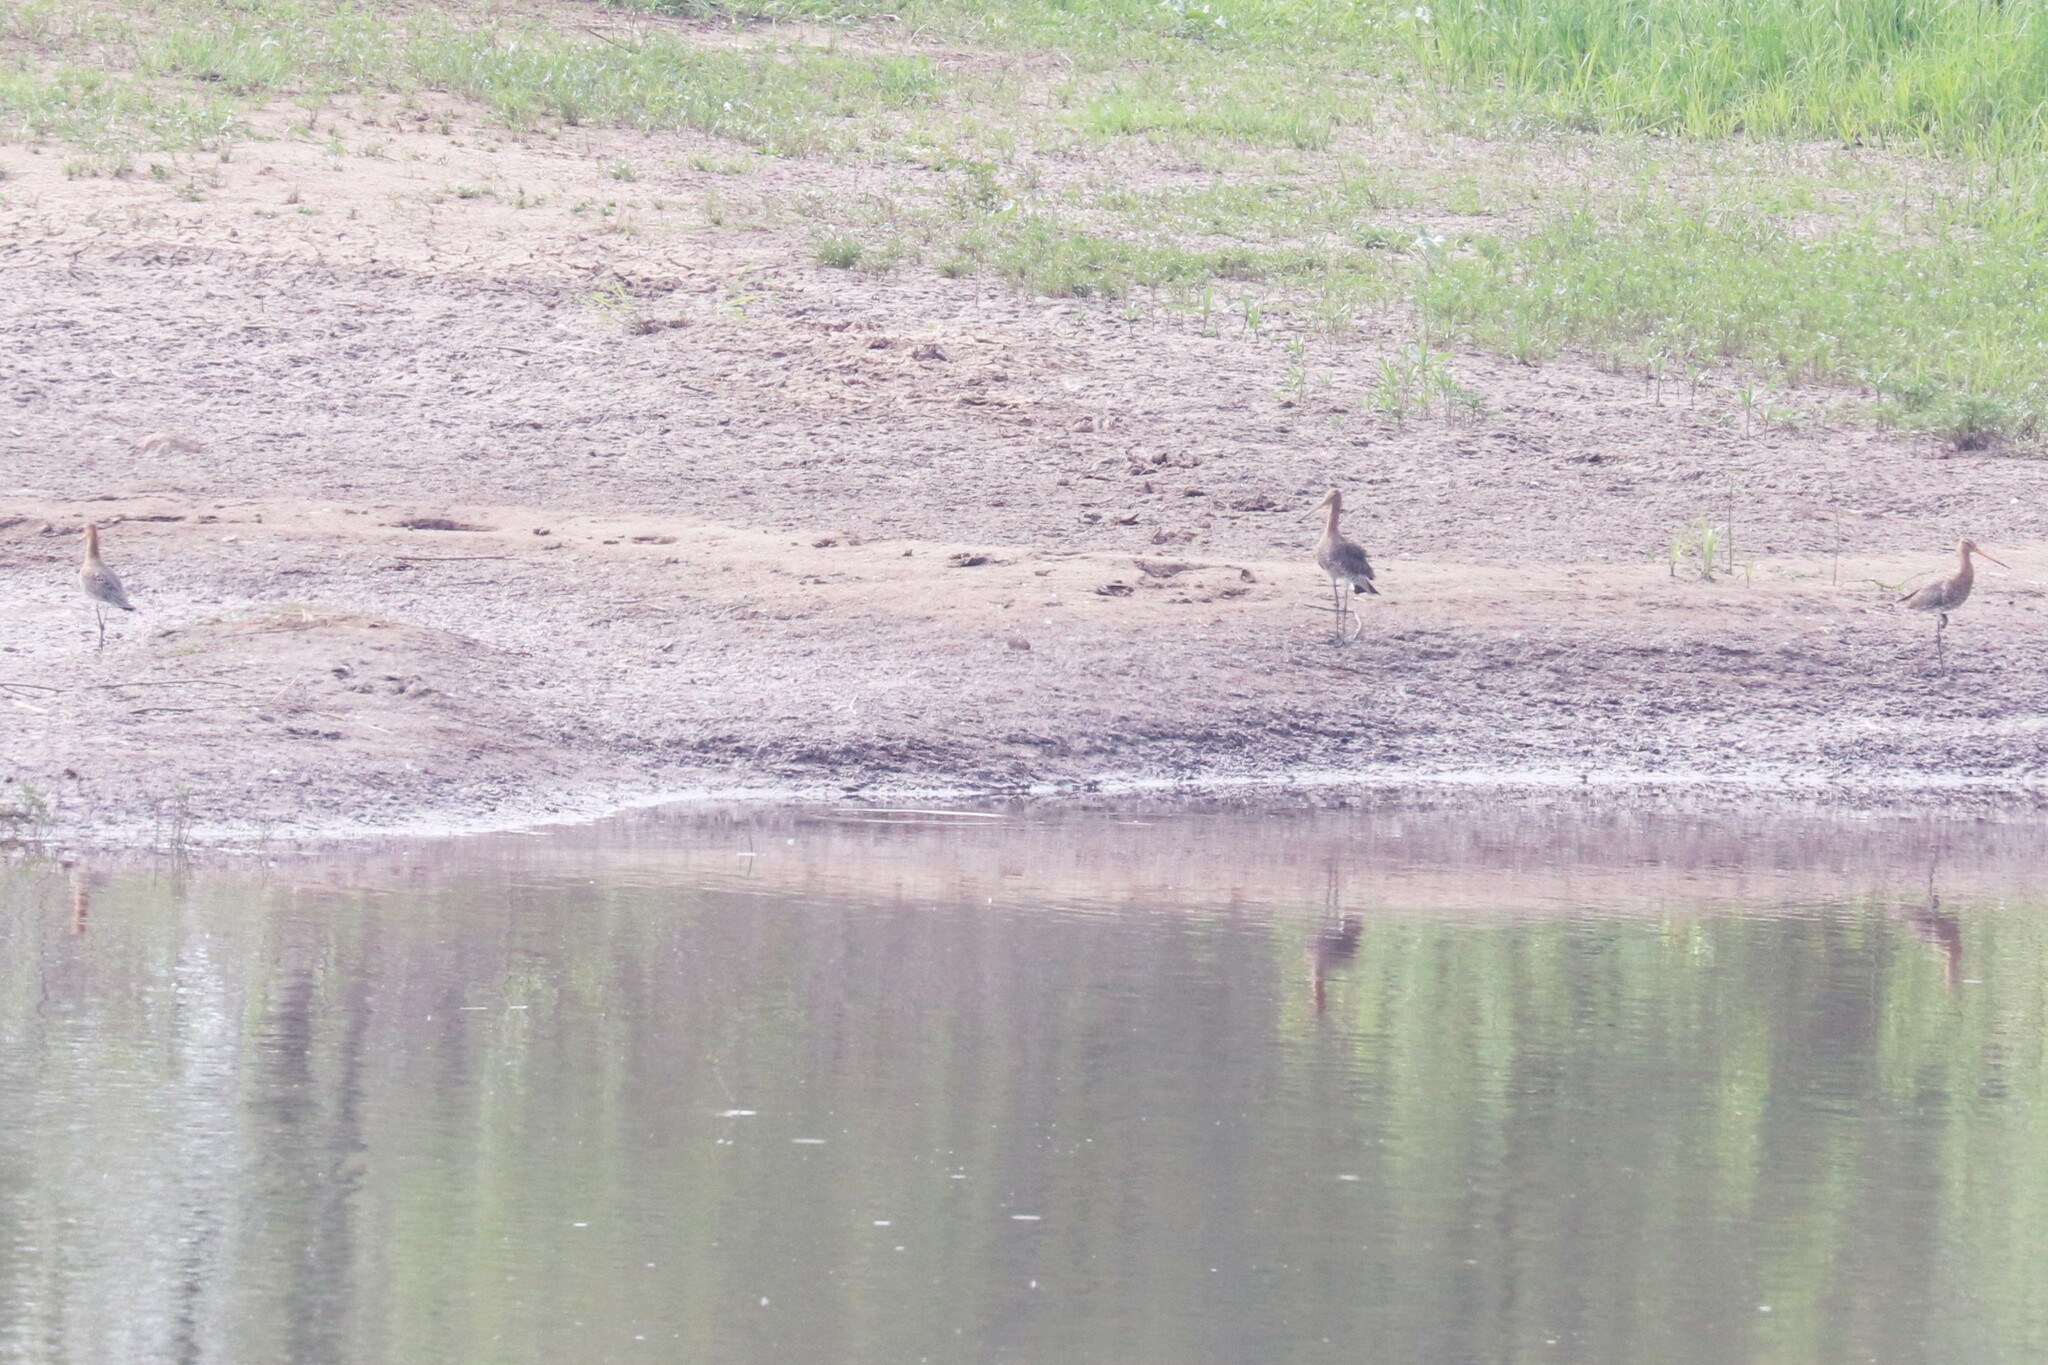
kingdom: Animalia
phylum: Chordata
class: Aves
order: Charadriiformes
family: Scolopacidae
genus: Limosa
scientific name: Limosa limosa
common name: Black-tailed godwit
